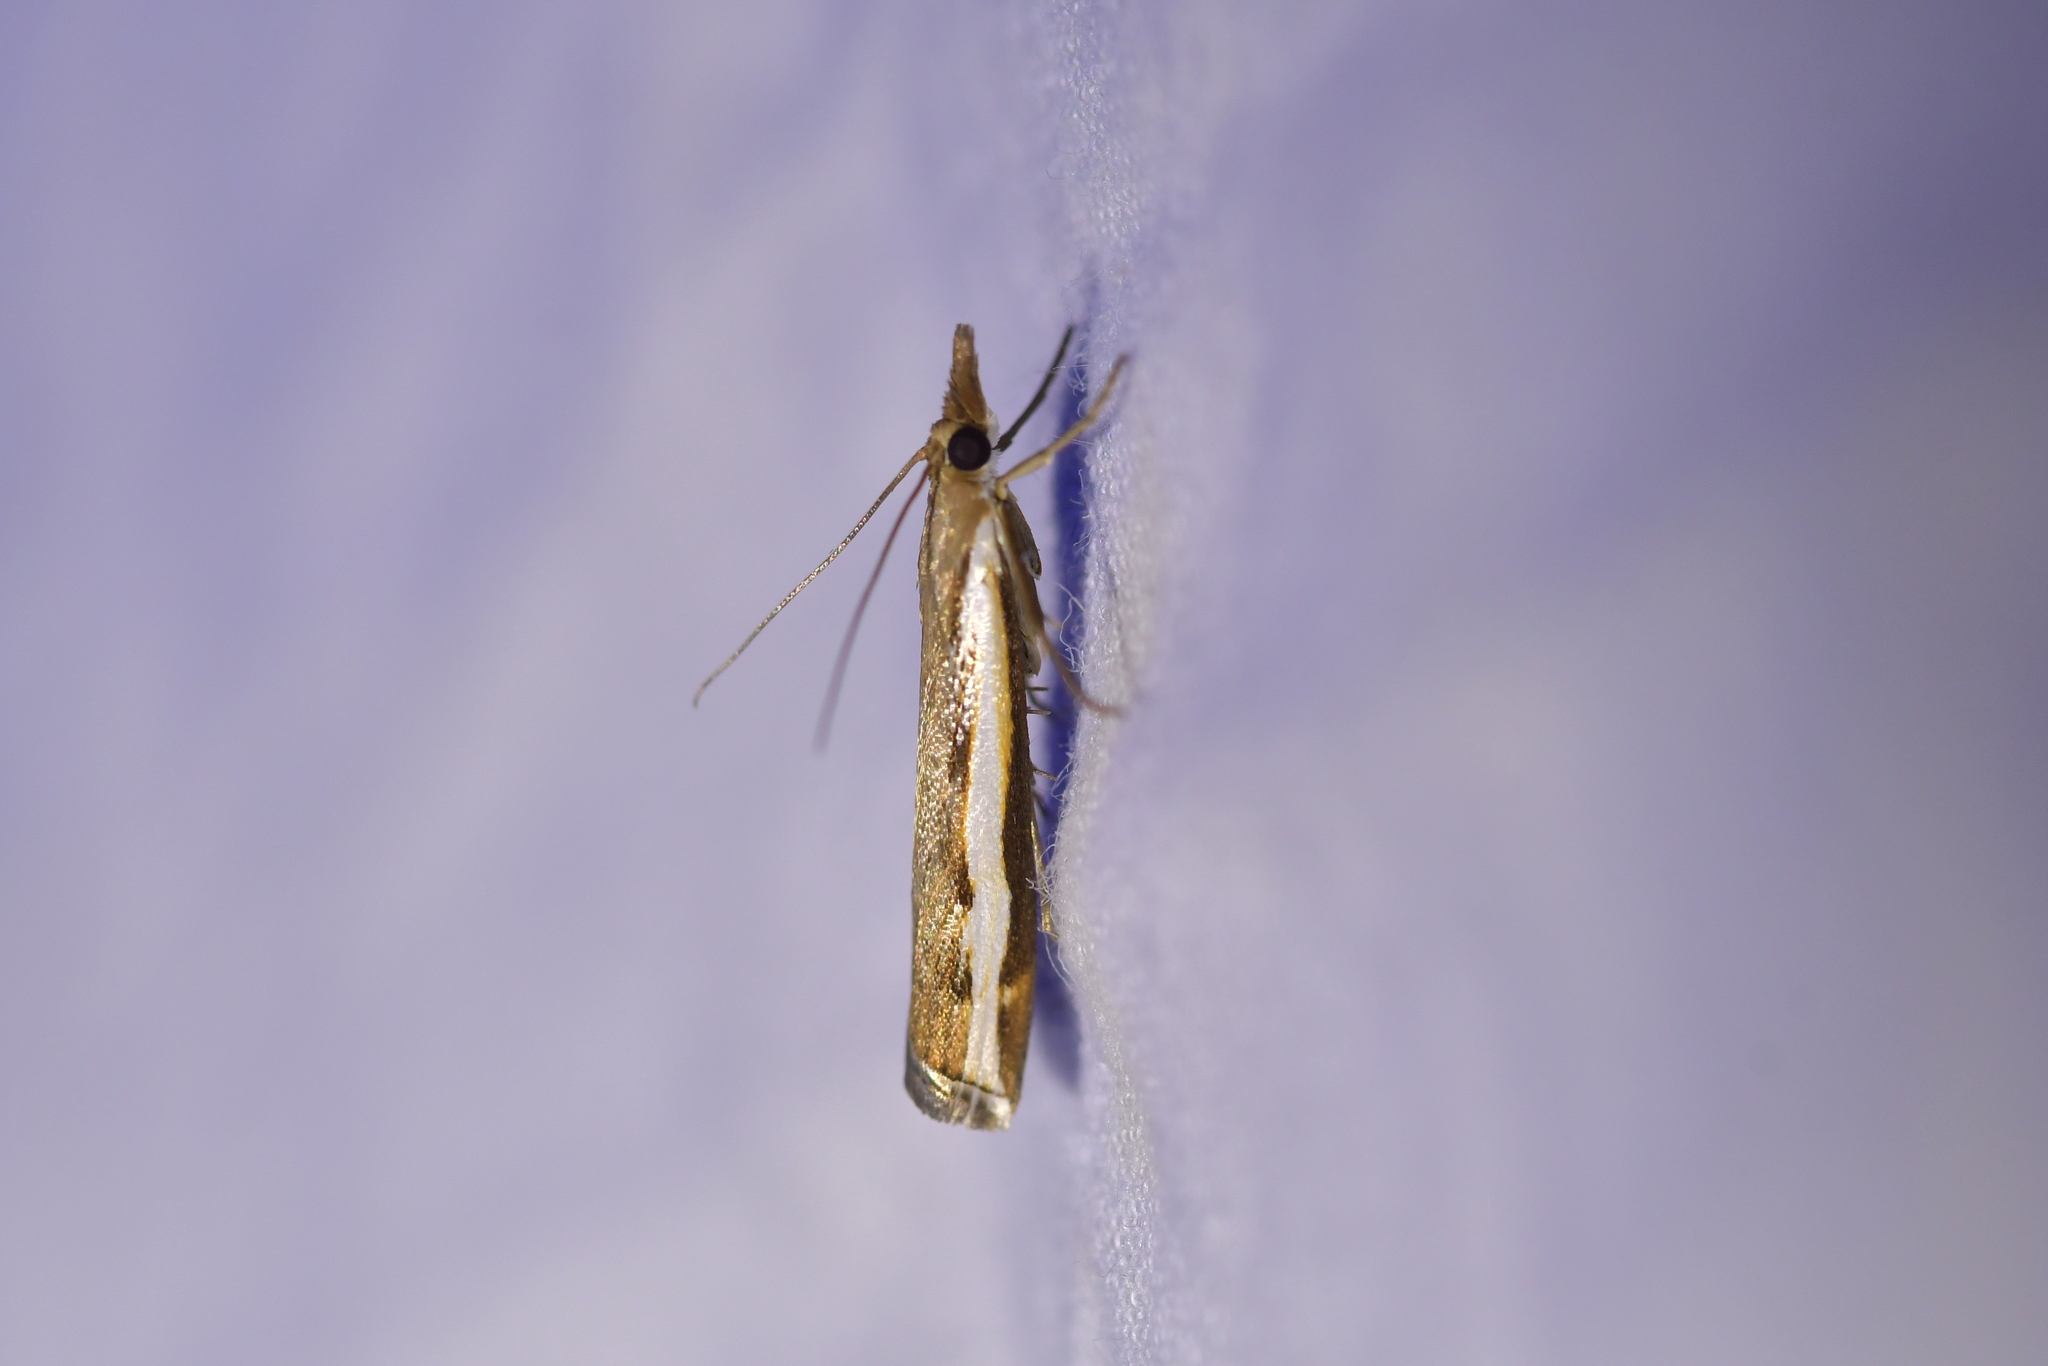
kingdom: Animalia
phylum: Arthropoda
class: Insecta
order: Lepidoptera
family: Crambidae
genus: Orocrambus
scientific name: Orocrambus flexuosellus
